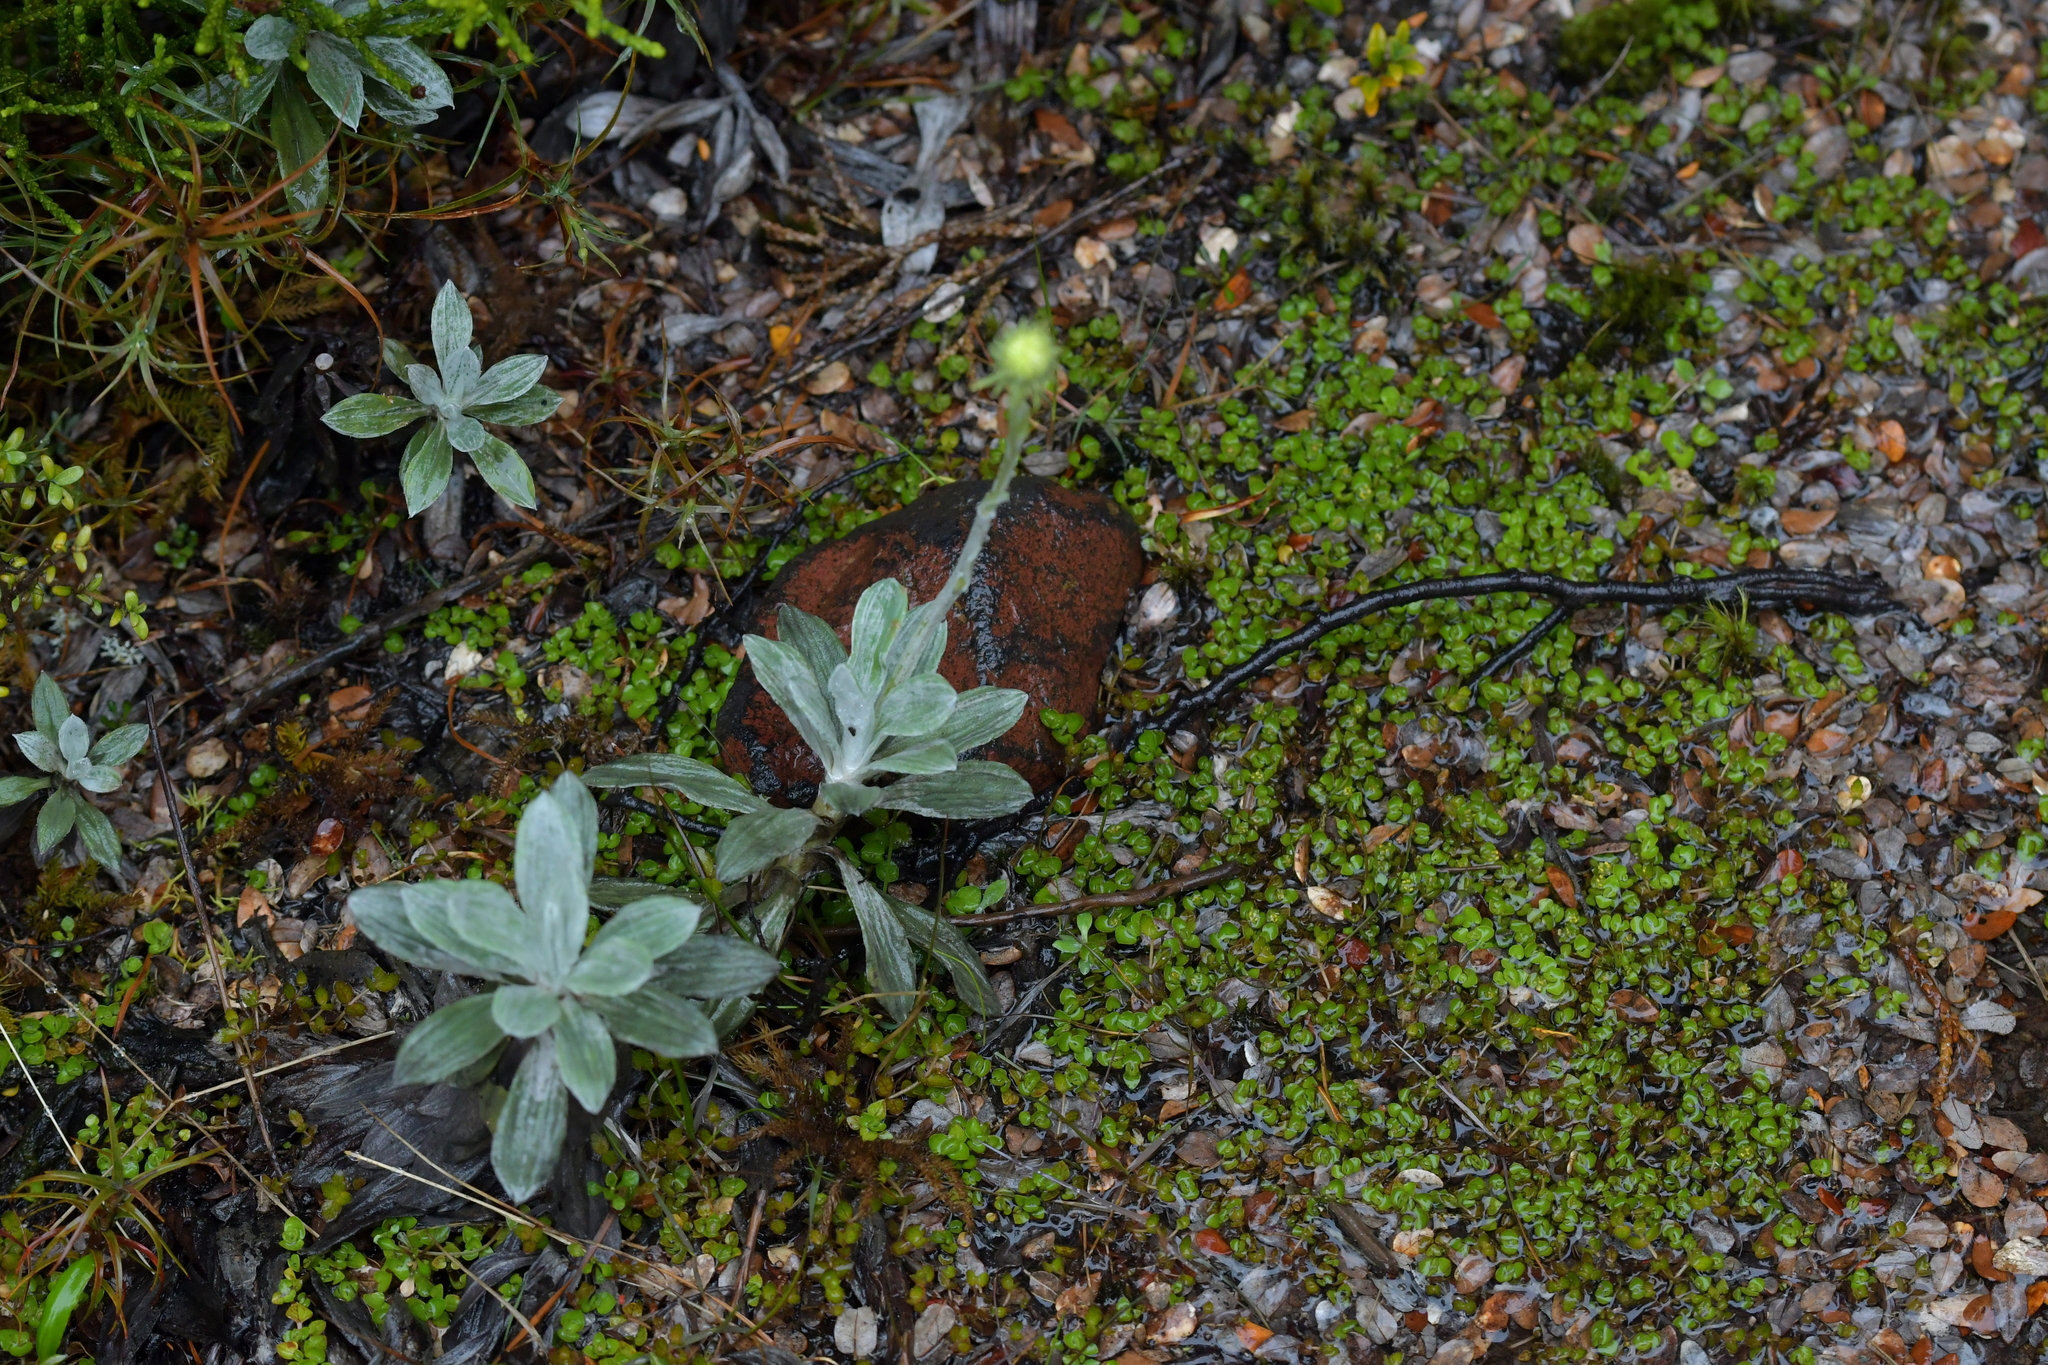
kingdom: Plantae
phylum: Tracheophyta
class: Magnoliopsida
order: Asterales
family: Asteraceae
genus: Celmisia
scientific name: Celmisia incana
